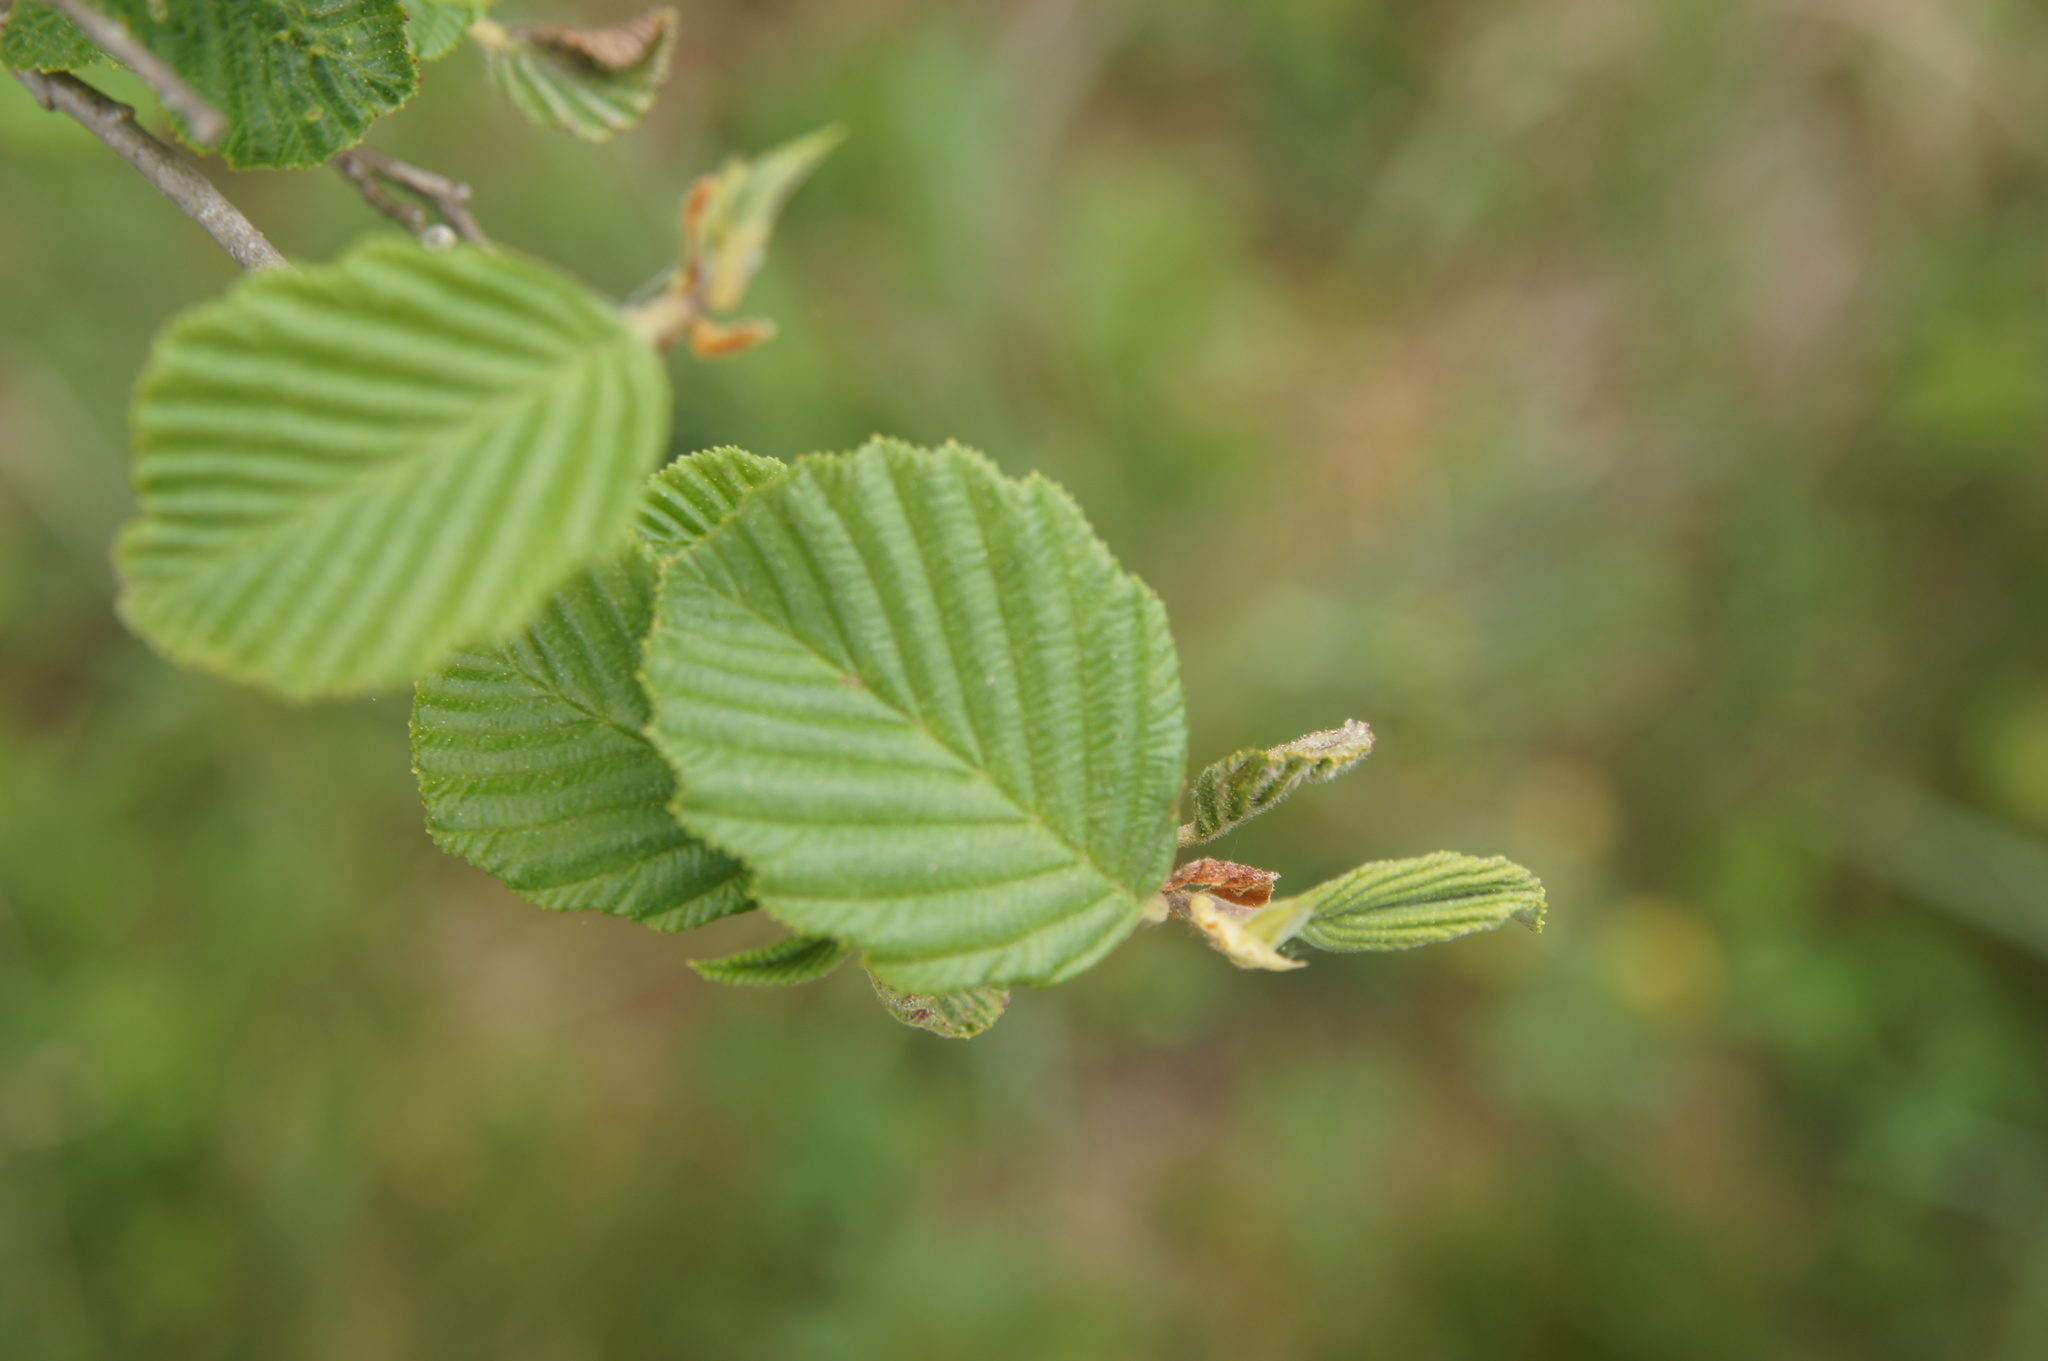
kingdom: Plantae
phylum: Tracheophyta
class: Magnoliopsida
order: Fagales
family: Betulaceae
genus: Alnus
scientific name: Alnus incana
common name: Grey alder
